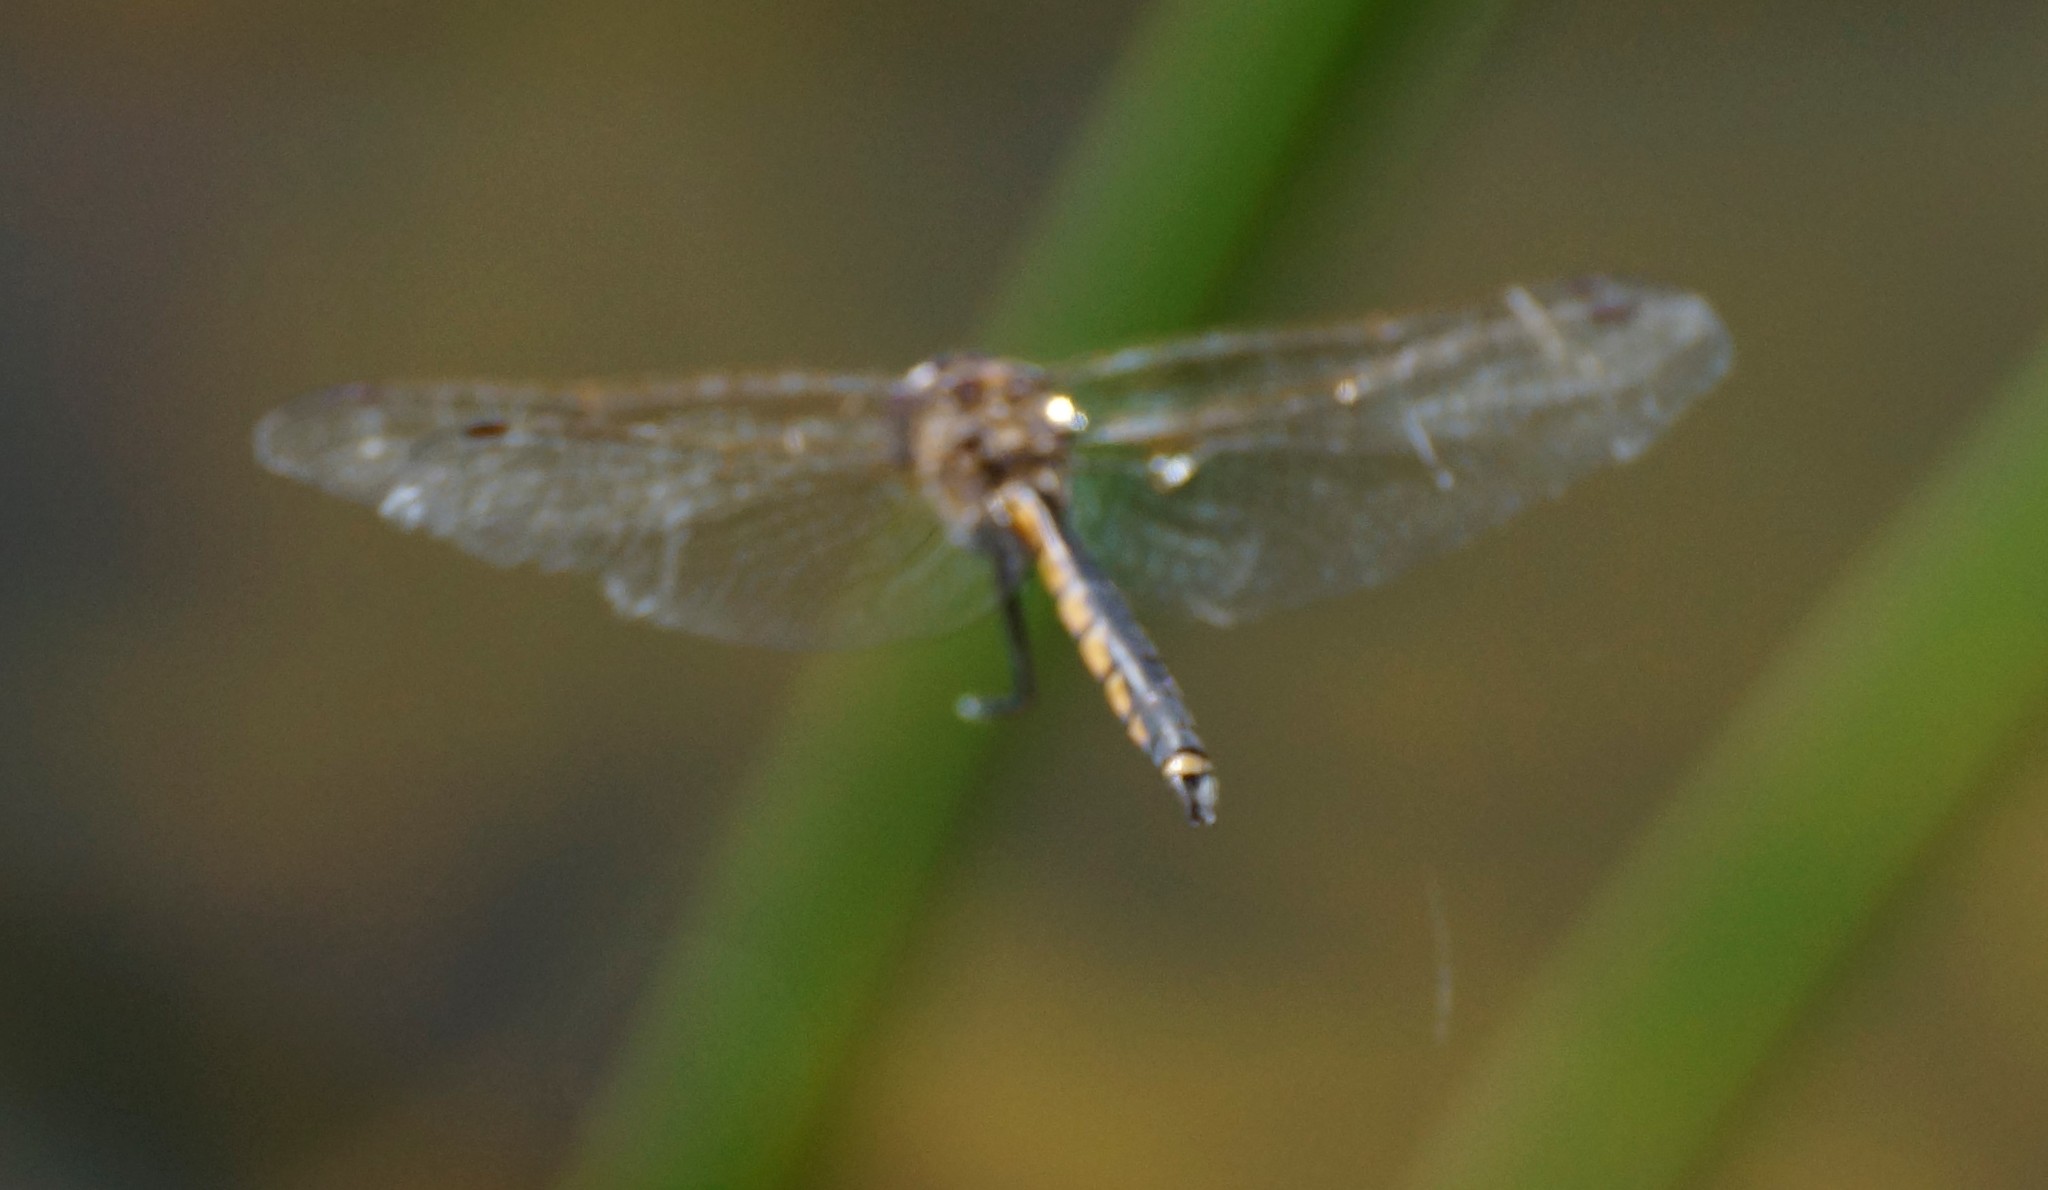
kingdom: Animalia
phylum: Arthropoda
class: Insecta
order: Odonata
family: Corduliidae
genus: Hemicordulia
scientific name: Hemicordulia tau
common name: Tau emerald
